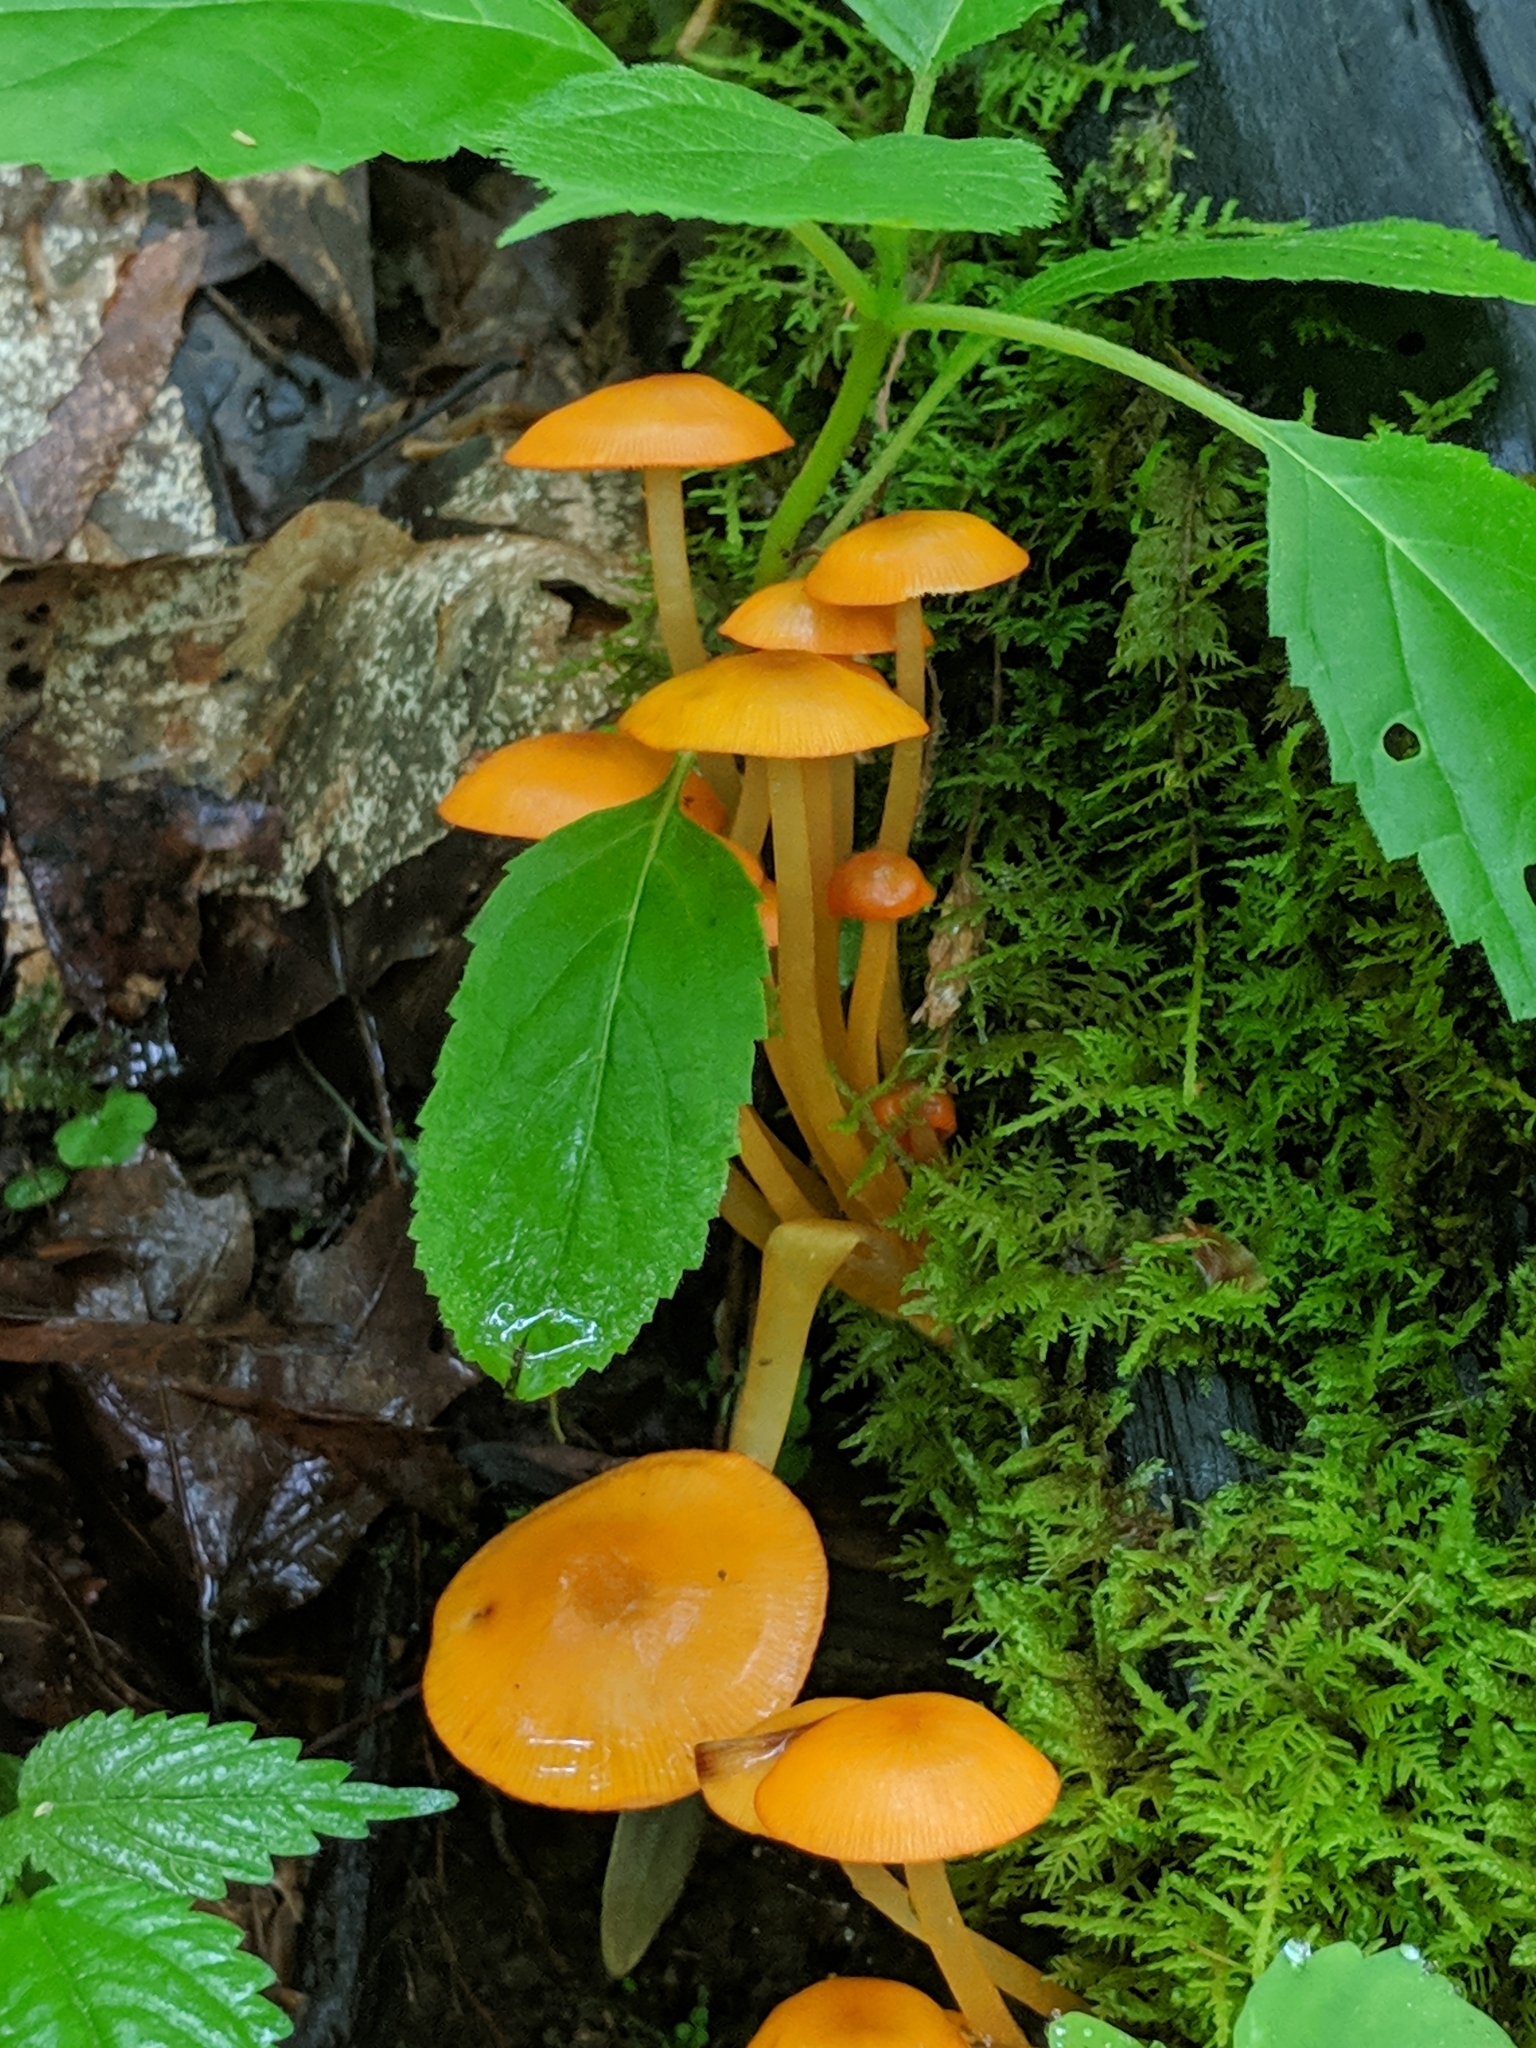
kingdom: Fungi
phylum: Basidiomycota
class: Agaricomycetes
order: Agaricales
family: Mycenaceae
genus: Mycena
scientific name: Mycena leaiana
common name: Orange mycena
